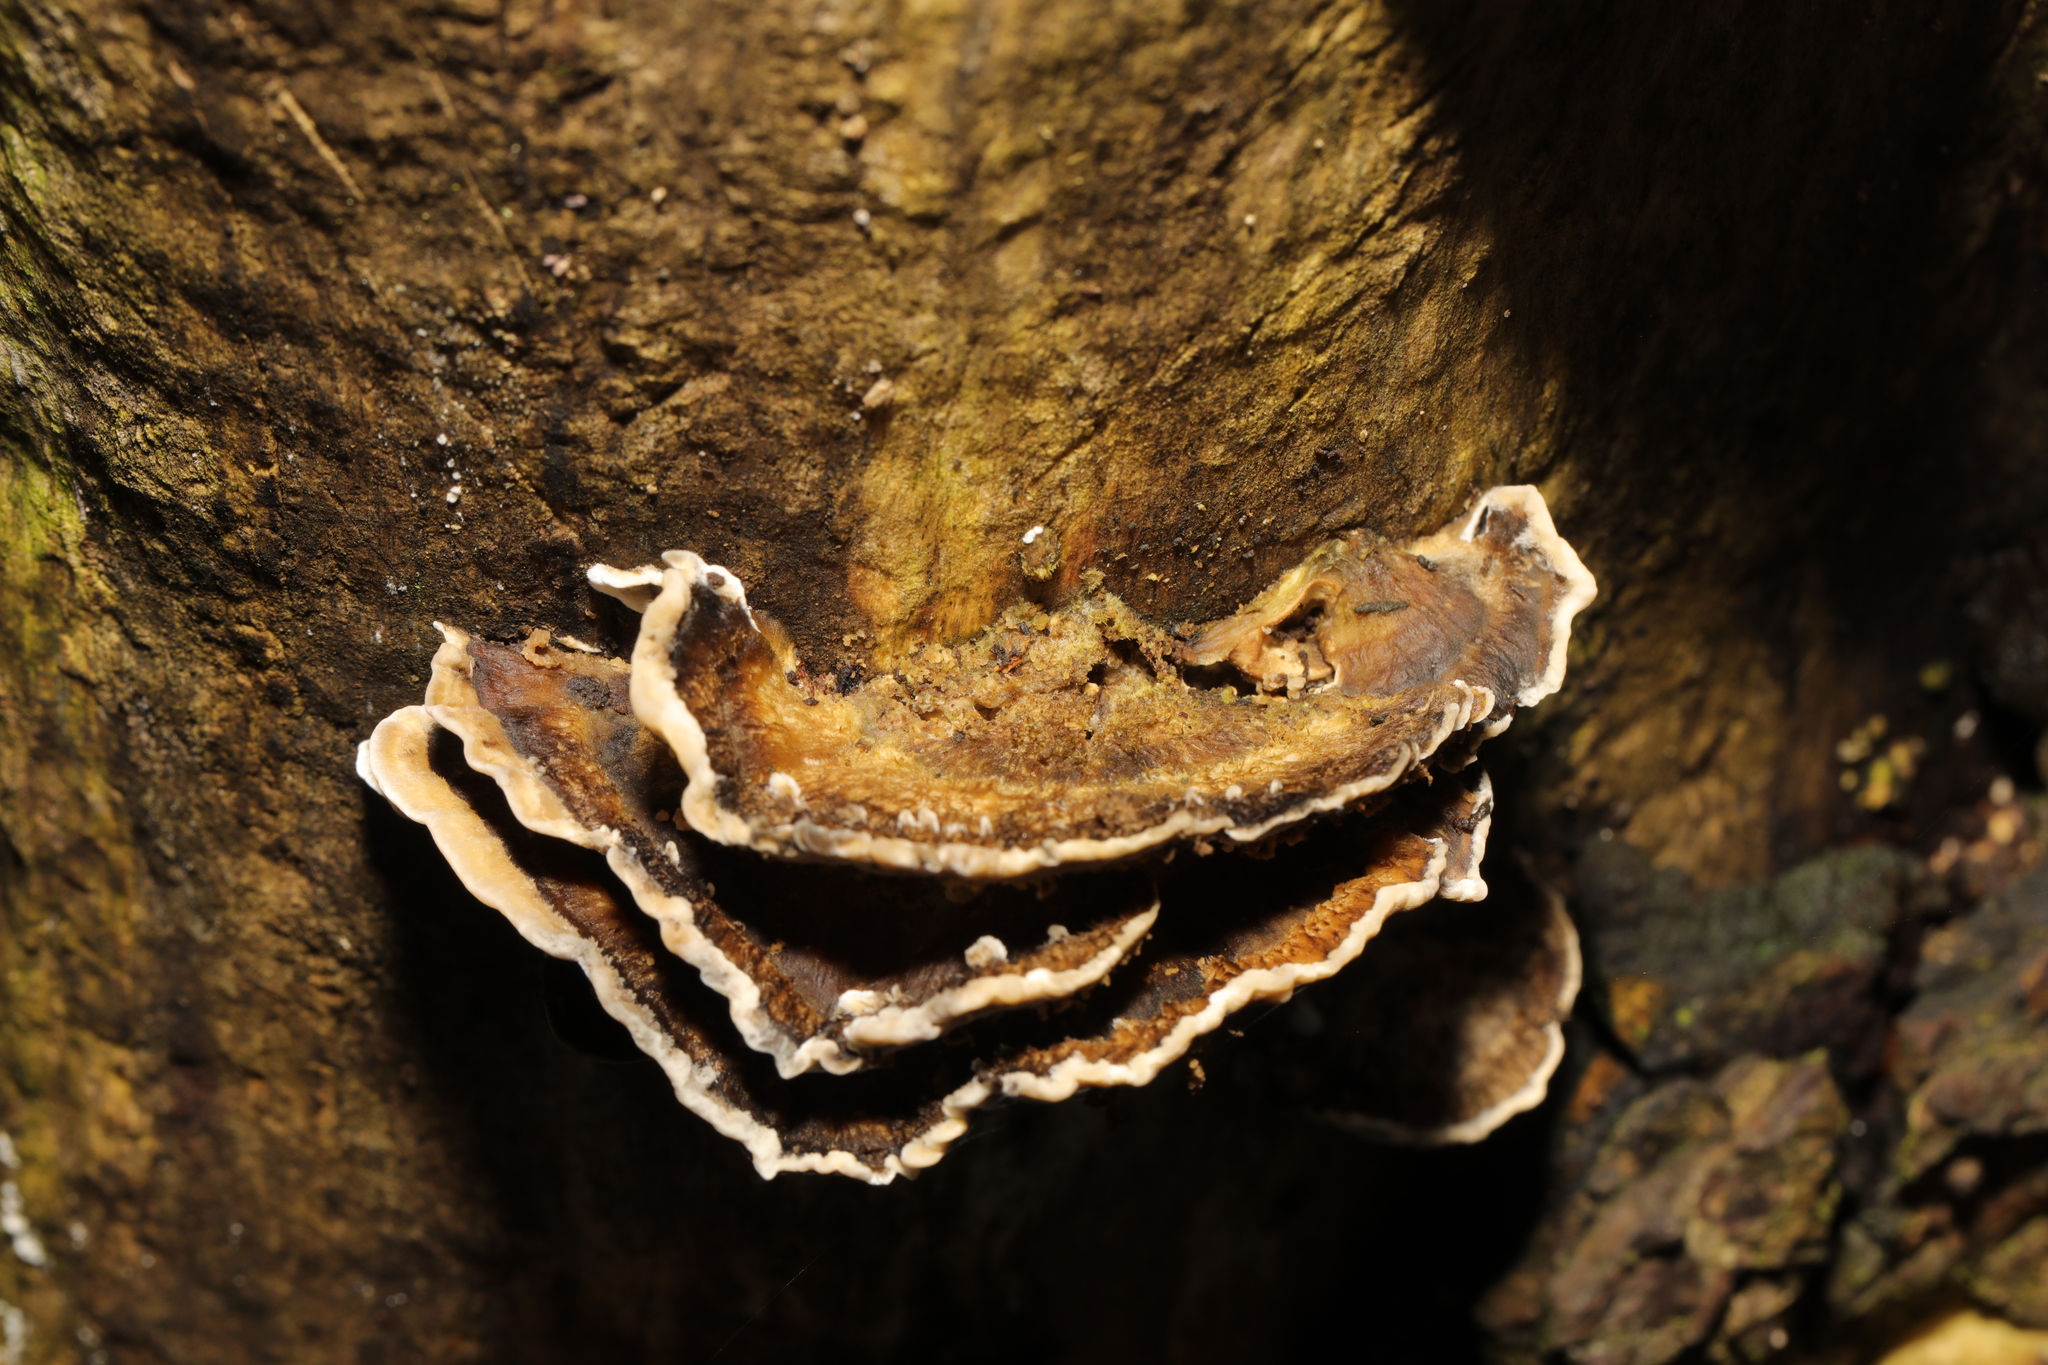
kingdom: Fungi
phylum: Basidiomycota
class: Agaricomycetes
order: Polyporales
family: Phanerochaetaceae
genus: Bjerkandera
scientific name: Bjerkandera adusta
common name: Smoky bracket
